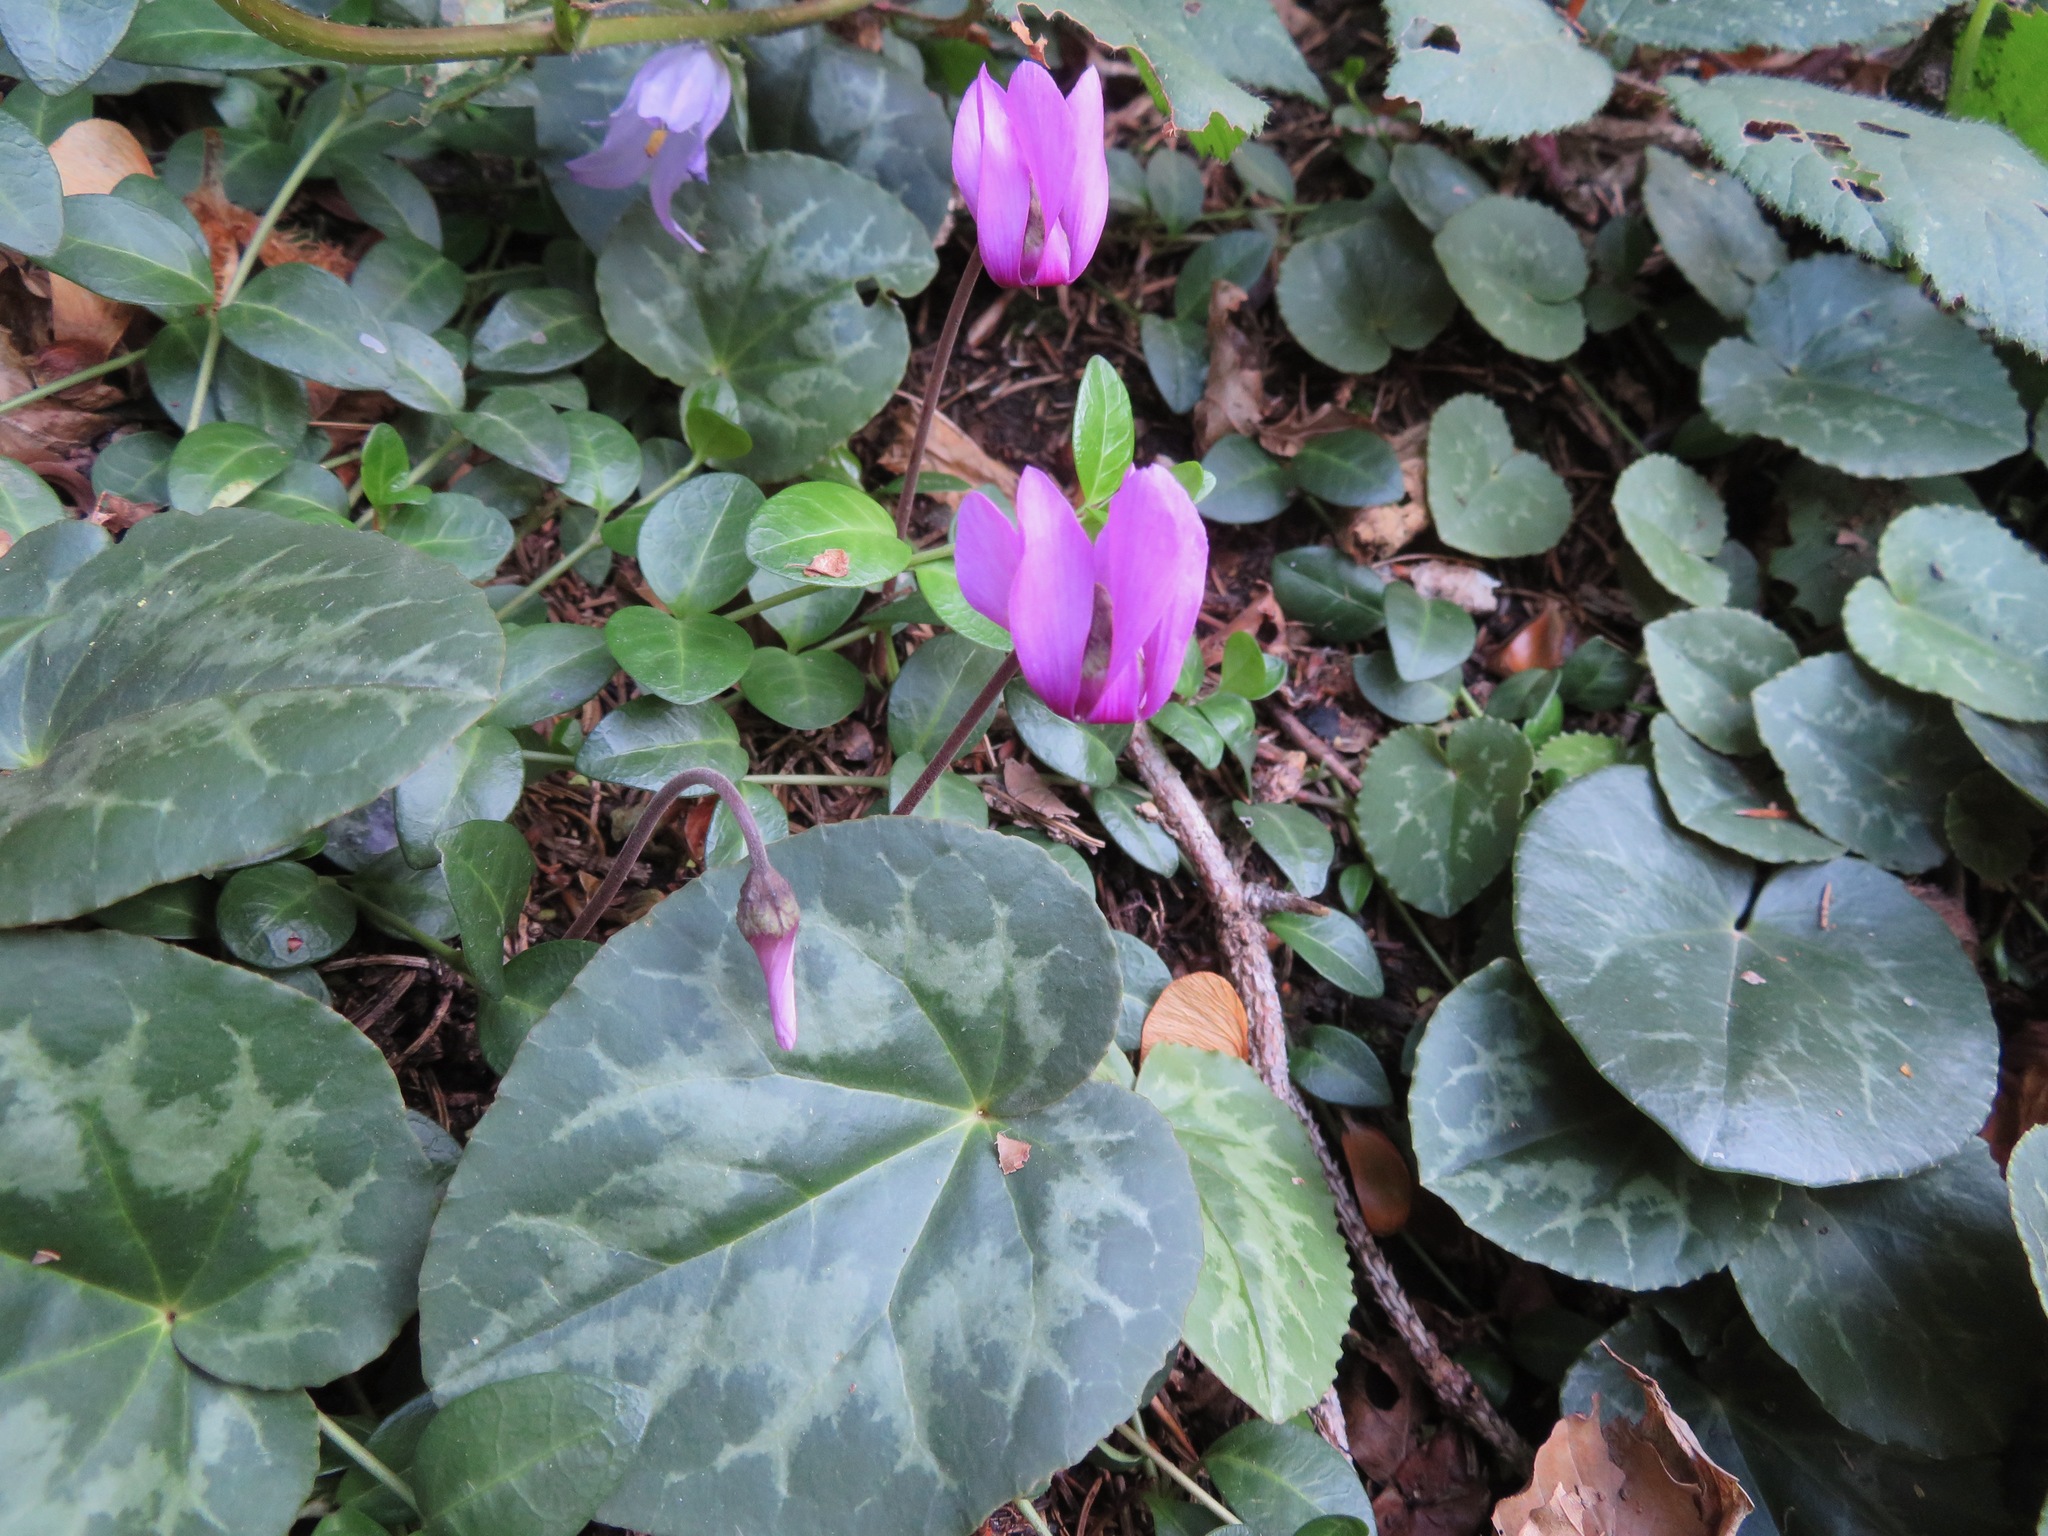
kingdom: Plantae
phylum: Tracheophyta
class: Magnoliopsida
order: Ericales
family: Primulaceae
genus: Cyclamen
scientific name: Cyclamen purpurascens
